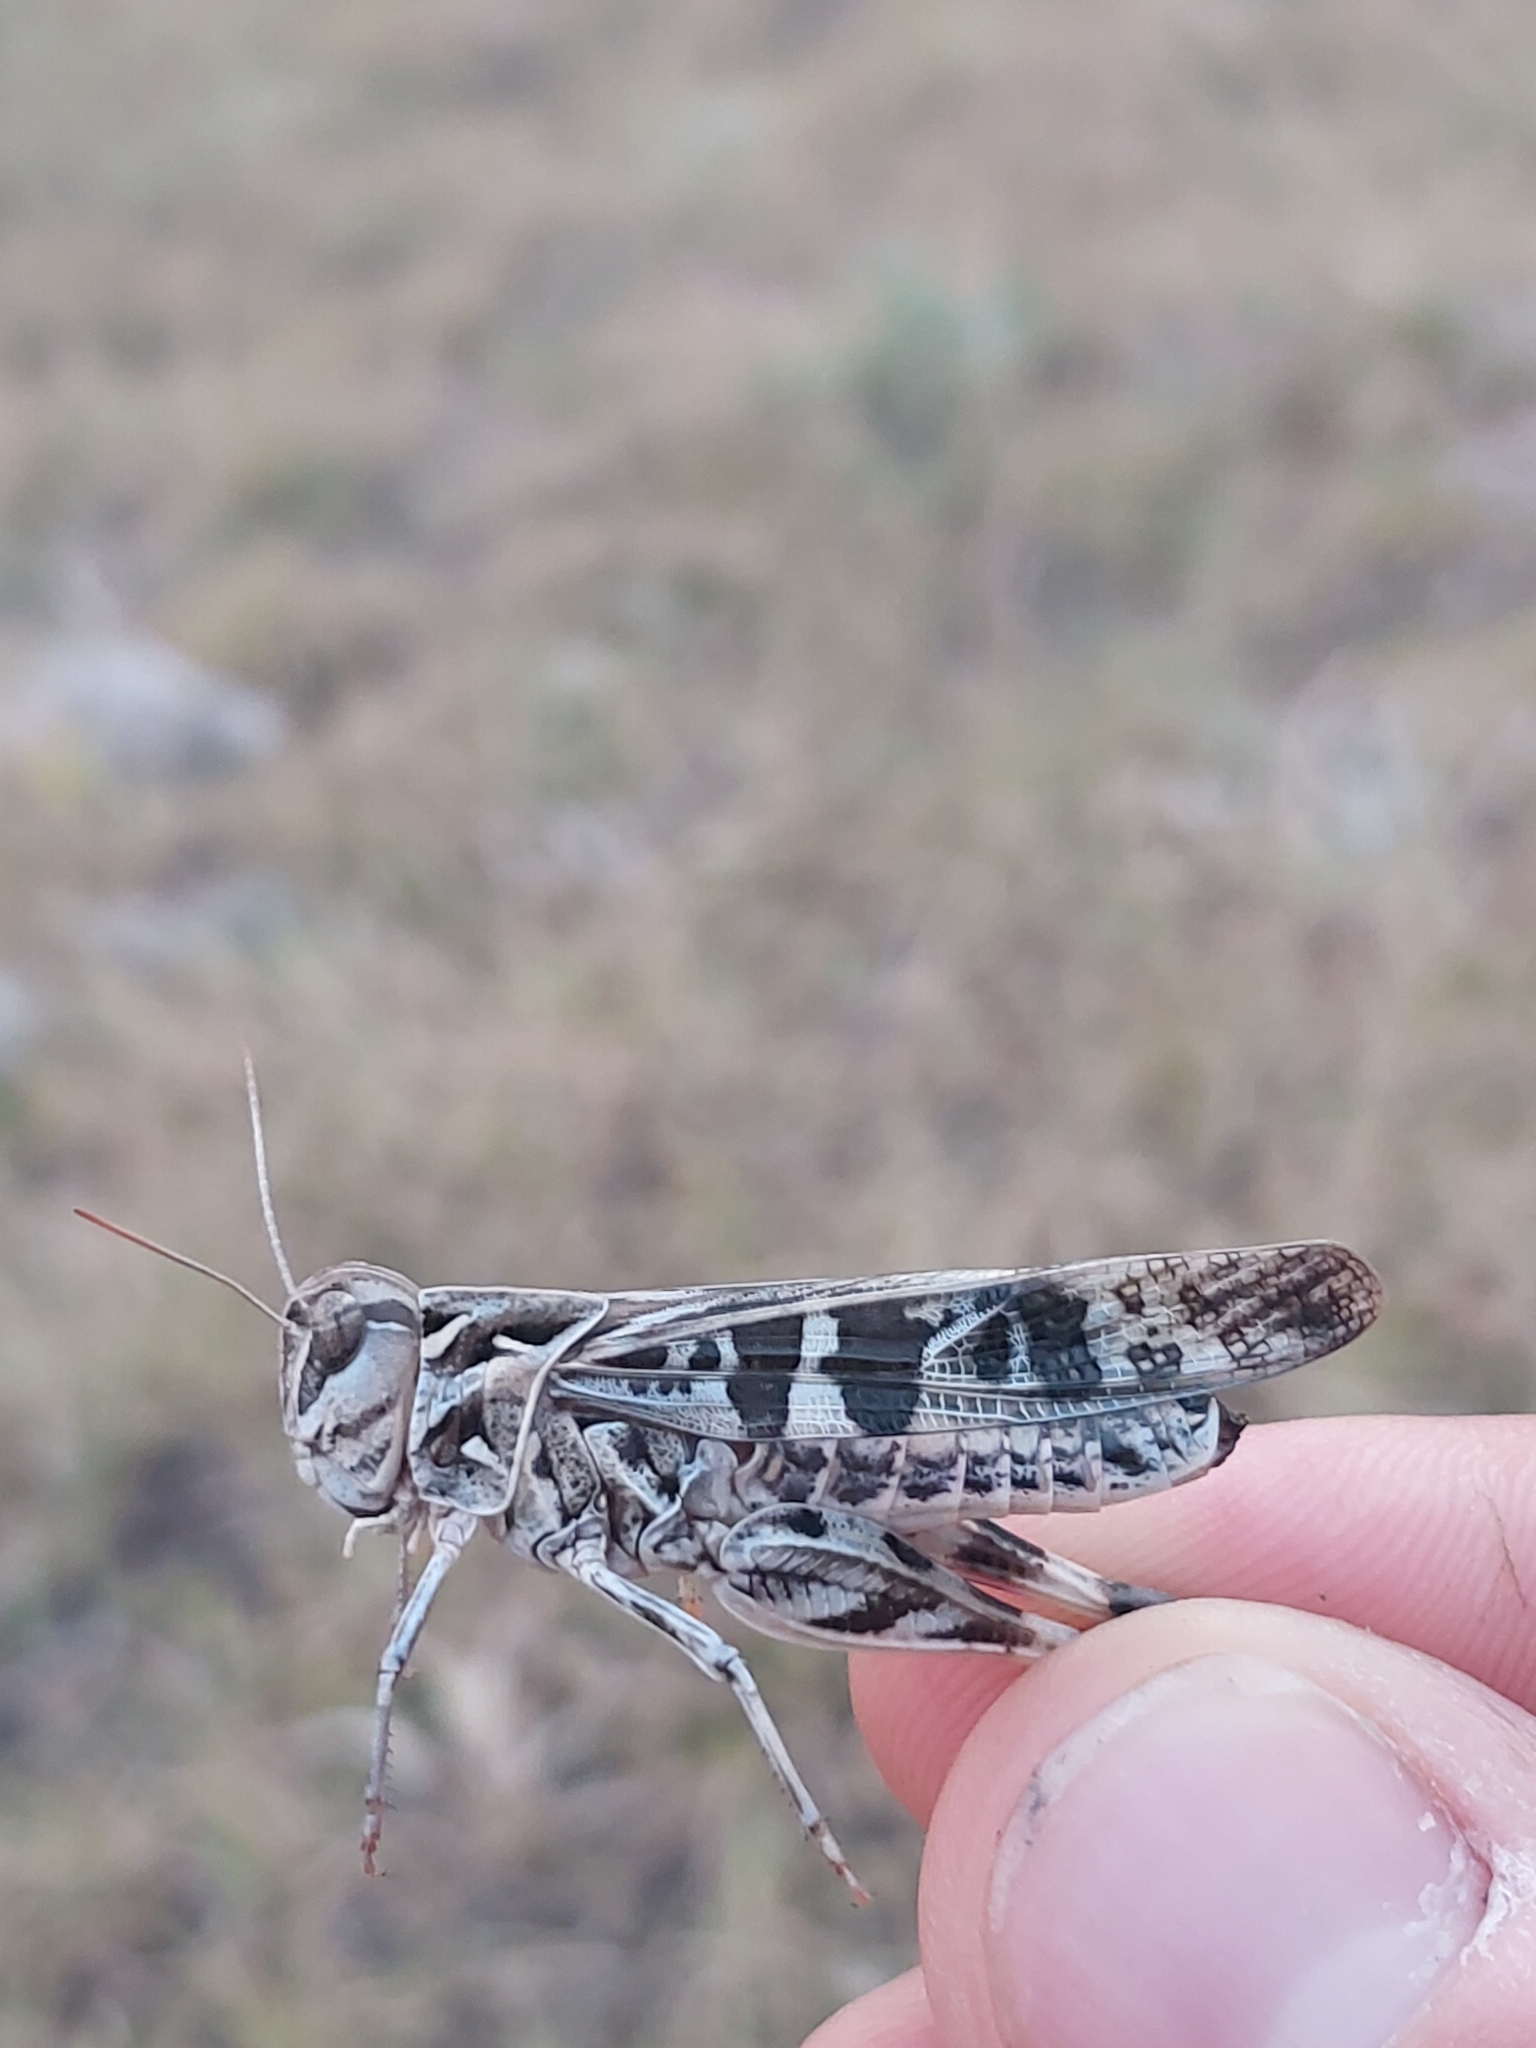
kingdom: Animalia
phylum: Arthropoda
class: Insecta
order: Orthoptera
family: Acrididae
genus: Oedaleus
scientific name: Oedaleus decorus
